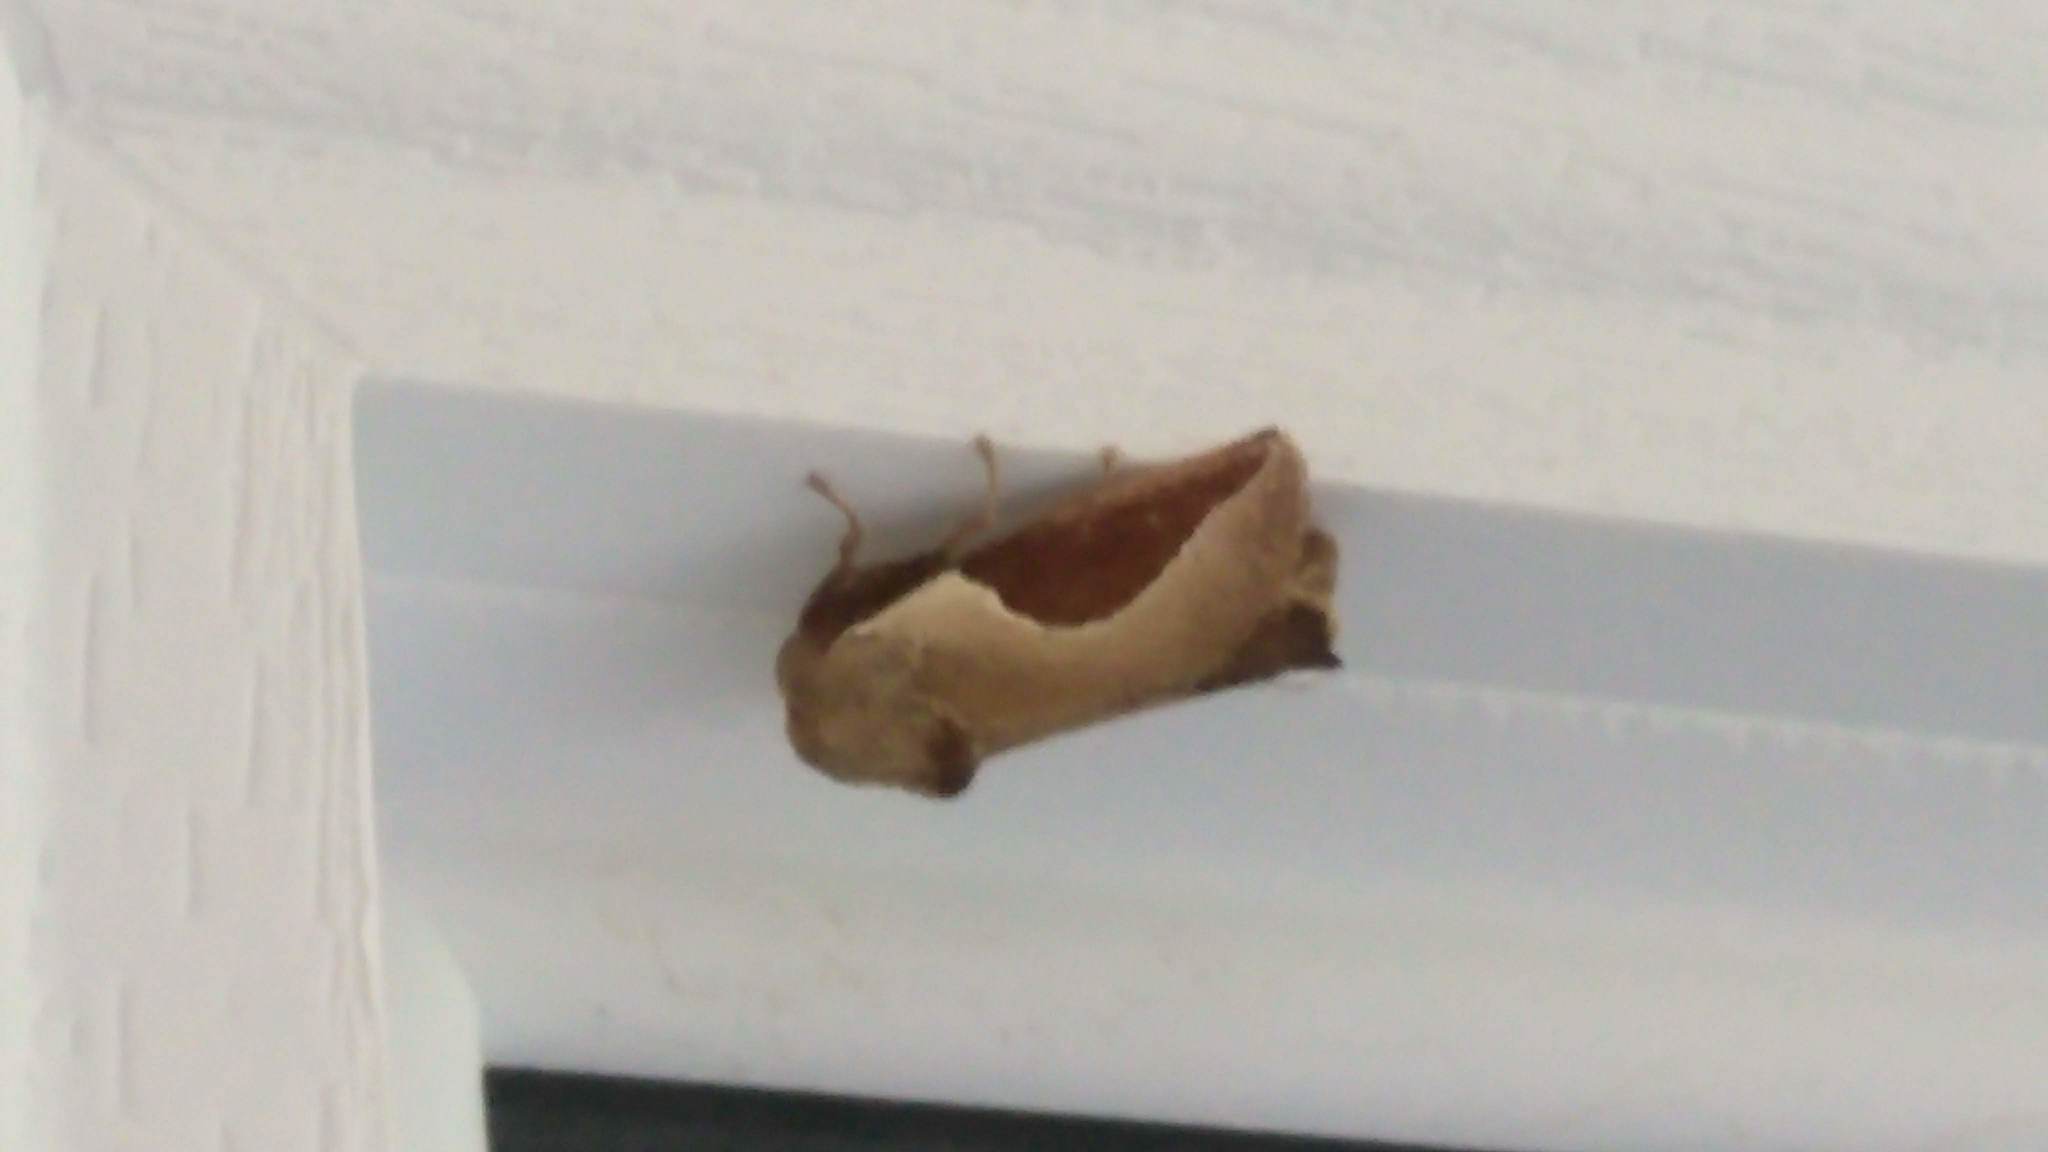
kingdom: Animalia
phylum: Arthropoda
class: Insecta
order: Lepidoptera
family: Limacodidae
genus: Prolimacodes
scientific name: Prolimacodes badia
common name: Skiff moth
